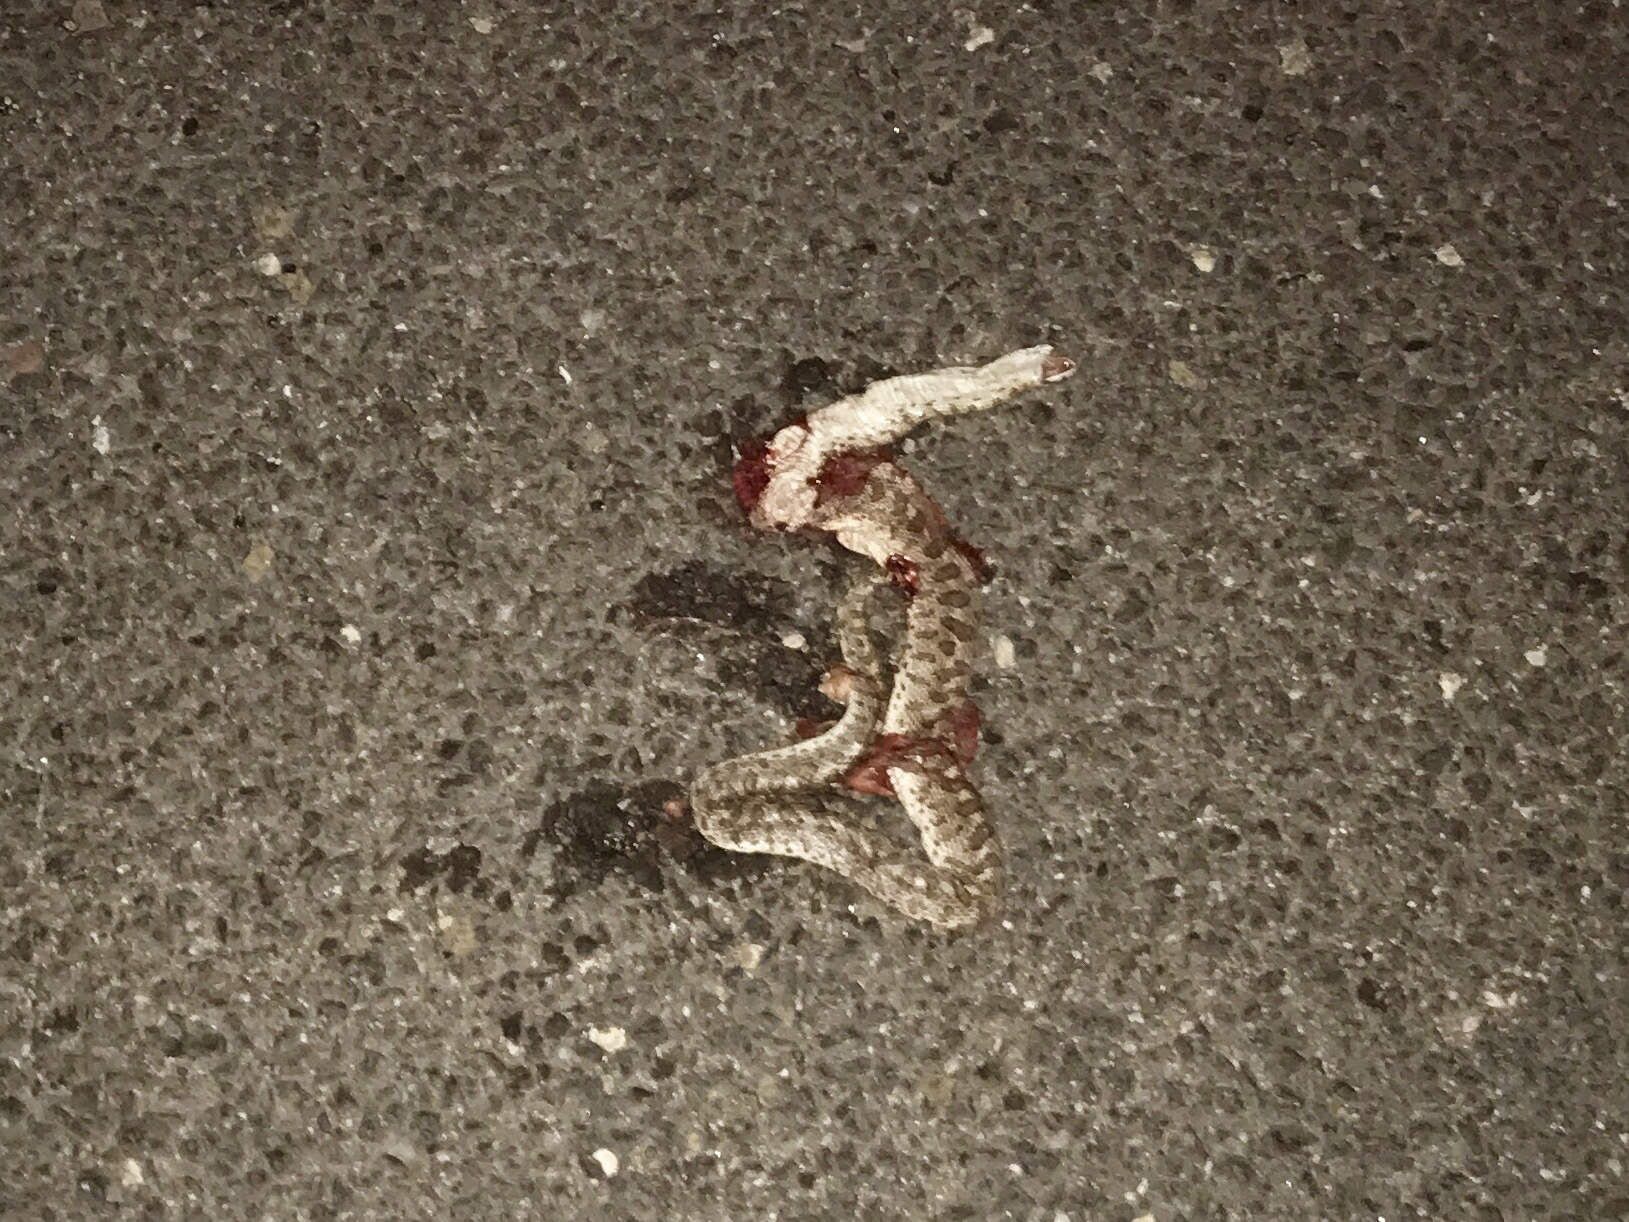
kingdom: Animalia
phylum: Chordata
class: Squamata
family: Colubridae
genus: Arizona
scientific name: Arizona elegans
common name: Glossy snake
